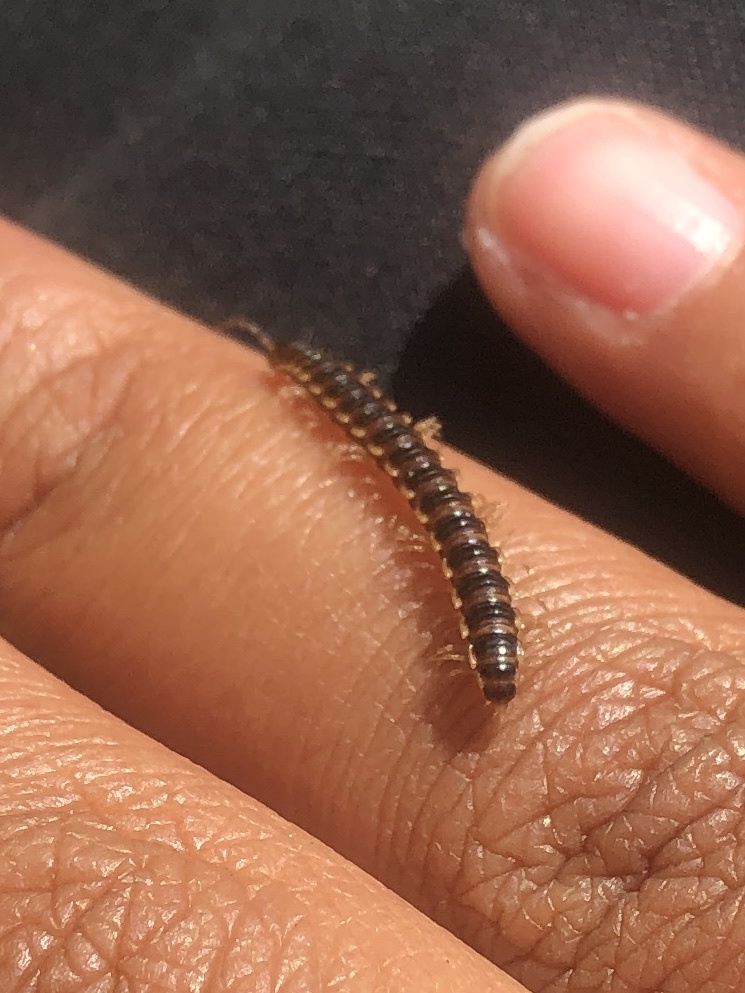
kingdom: Animalia
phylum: Arthropoda
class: Diplopoda
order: Polydesmida
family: Paradoxosomatidae
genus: Oxidus
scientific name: Oxidus gracilis
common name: Greenhouse millipede
